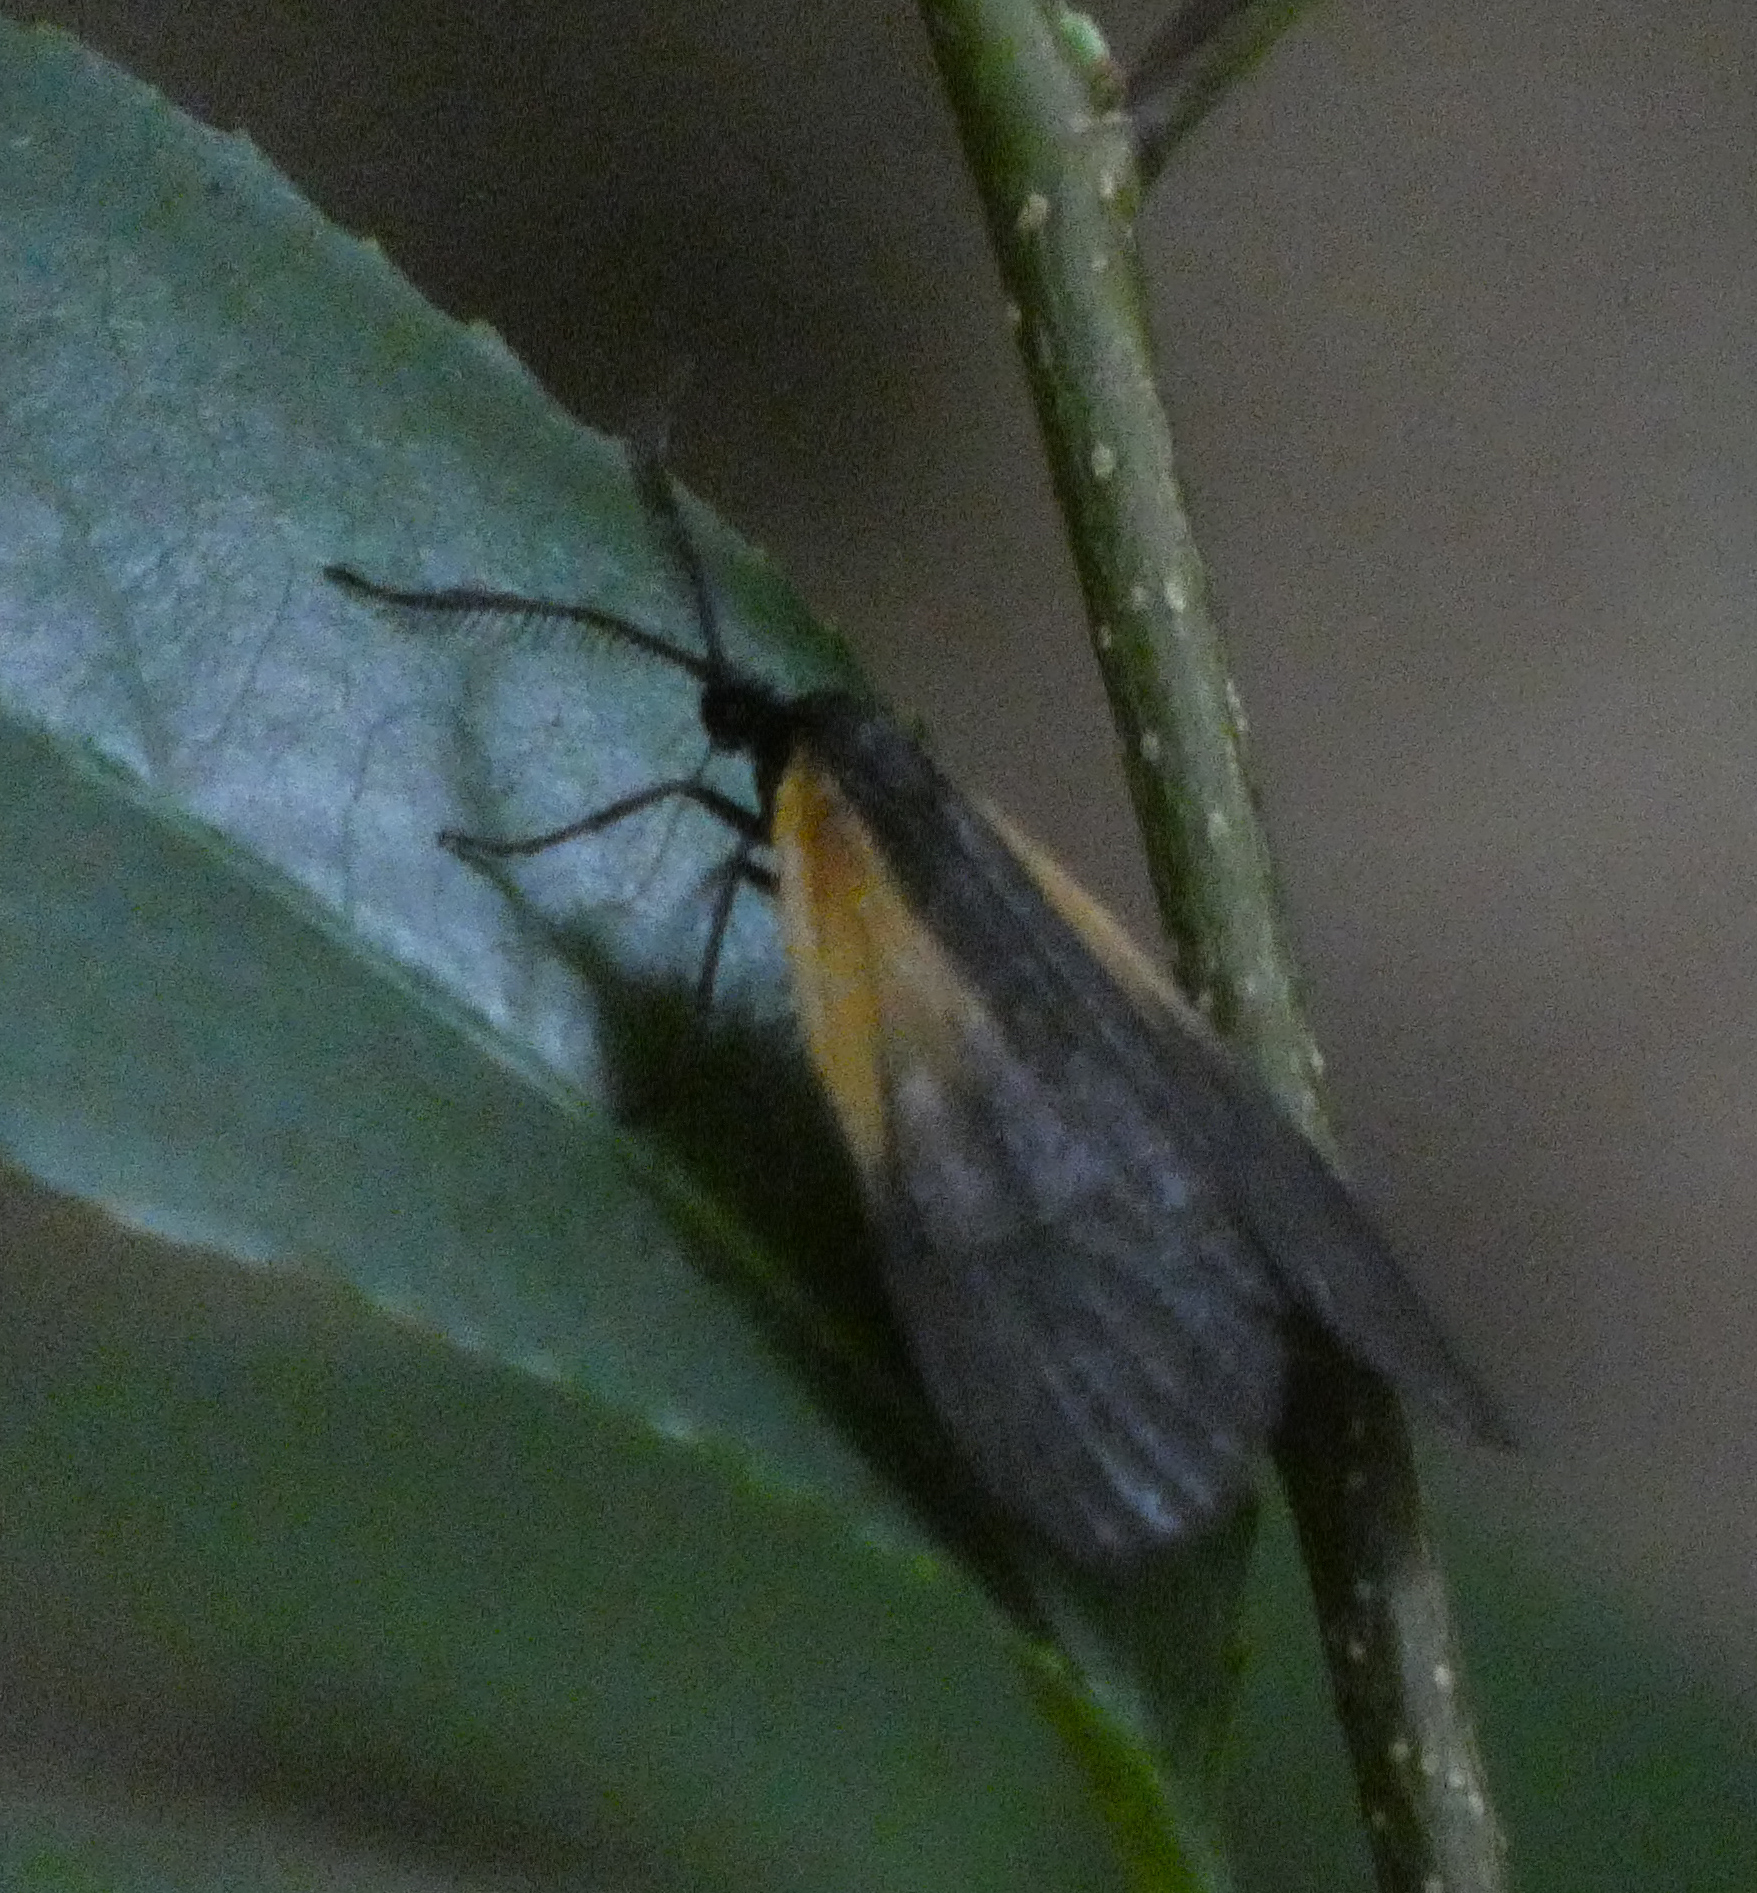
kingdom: Animalia
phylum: Arthropoda
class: Insecta
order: Lepidoptera
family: Zygaenidae
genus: Malthaca
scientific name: Malthaca dimidiata
